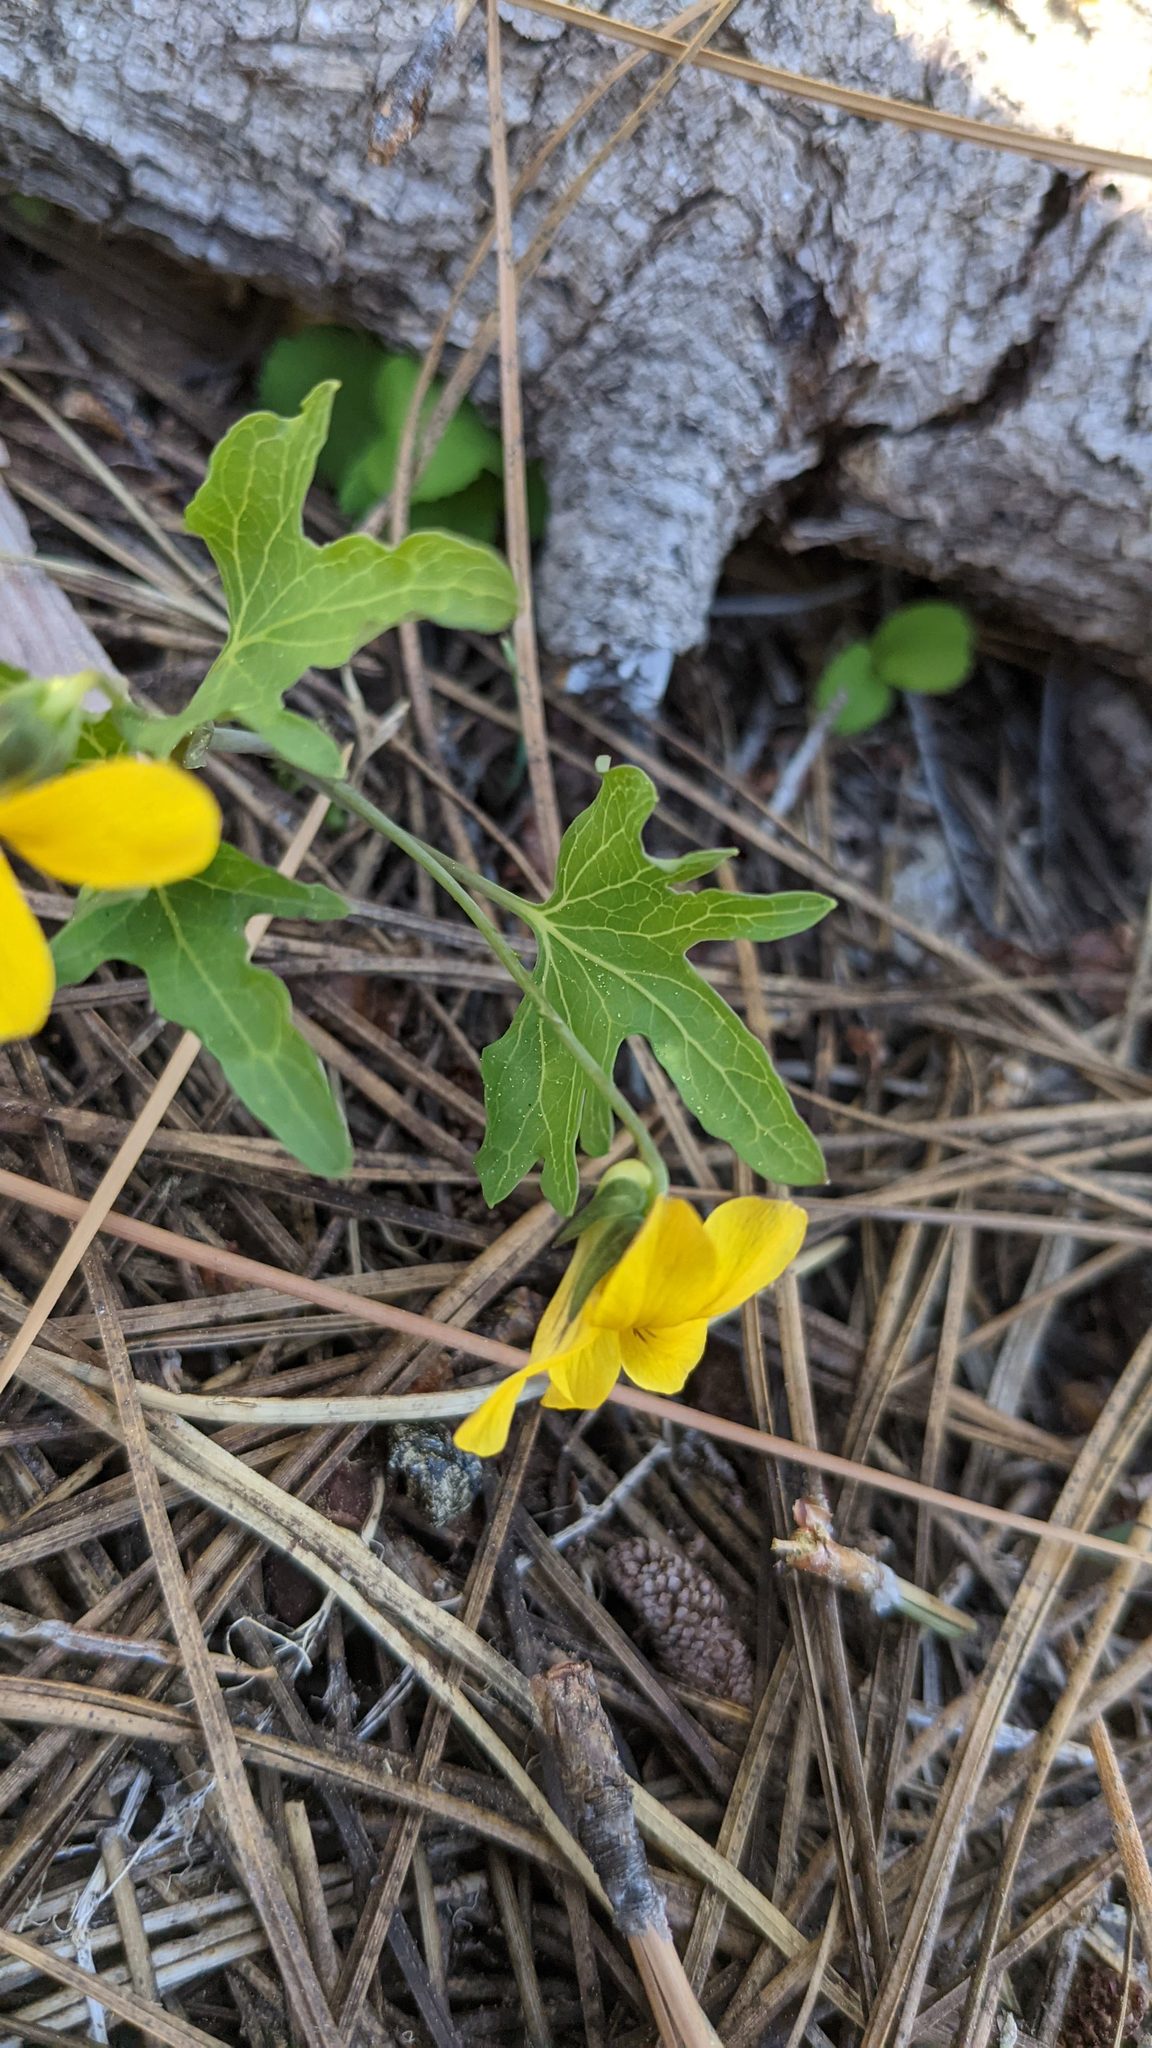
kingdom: Plantae
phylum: Tracheophyta
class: Magnoliopsida
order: Malpighiales
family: Violaceae
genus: Viola
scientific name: Viola lobata
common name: Pine violet
